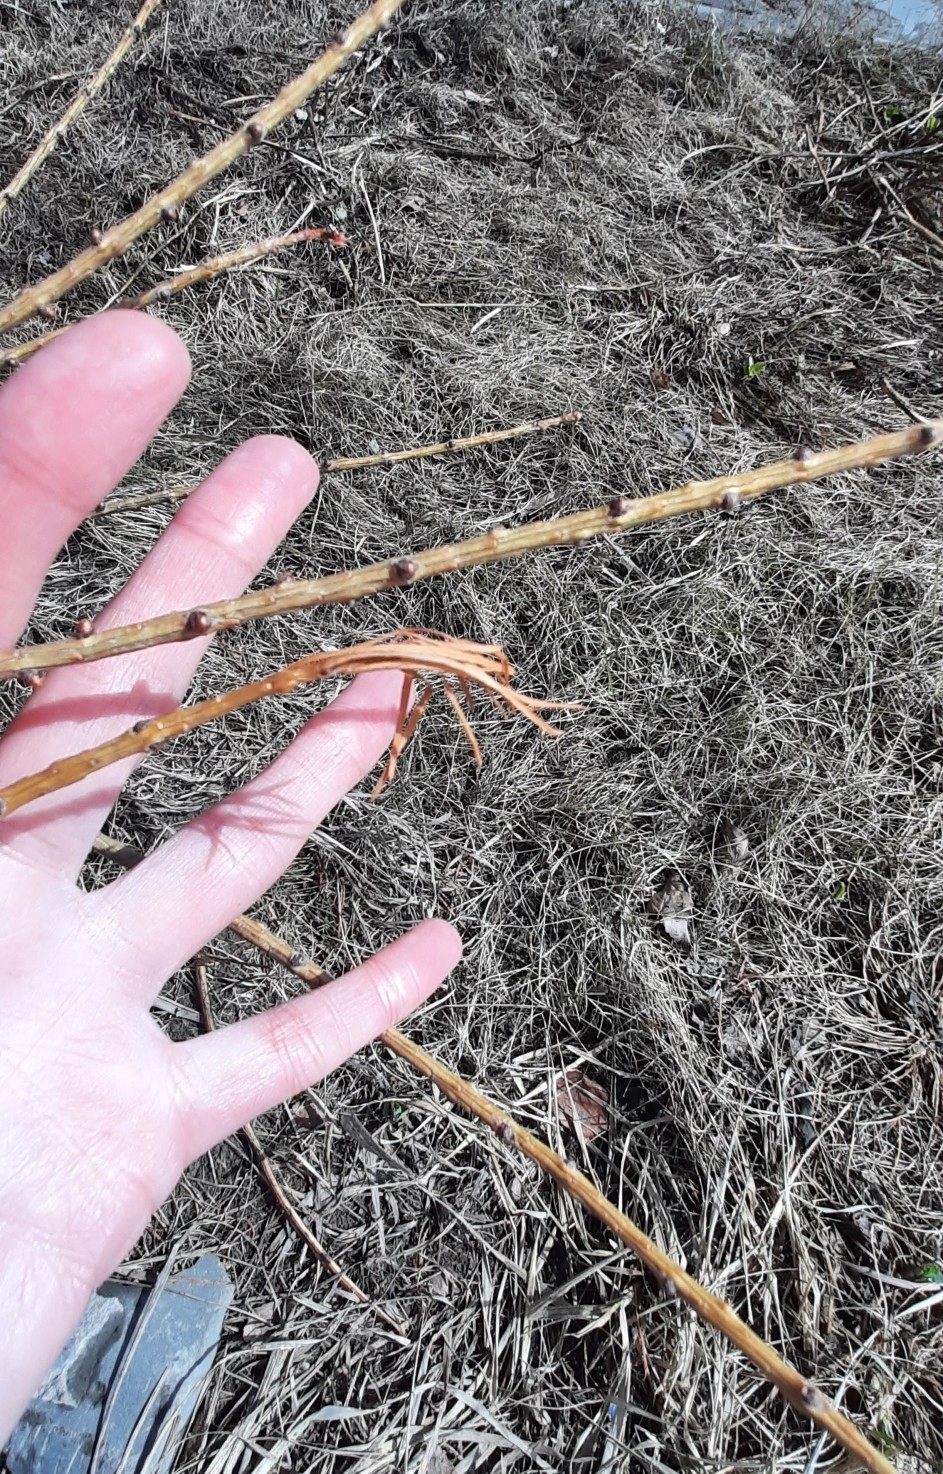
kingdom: Plantae
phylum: Tracheophyta
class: Pinopsida
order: Pinales
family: Pinaceae
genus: Larix
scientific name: Larix sibirica
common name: Siberian larch
